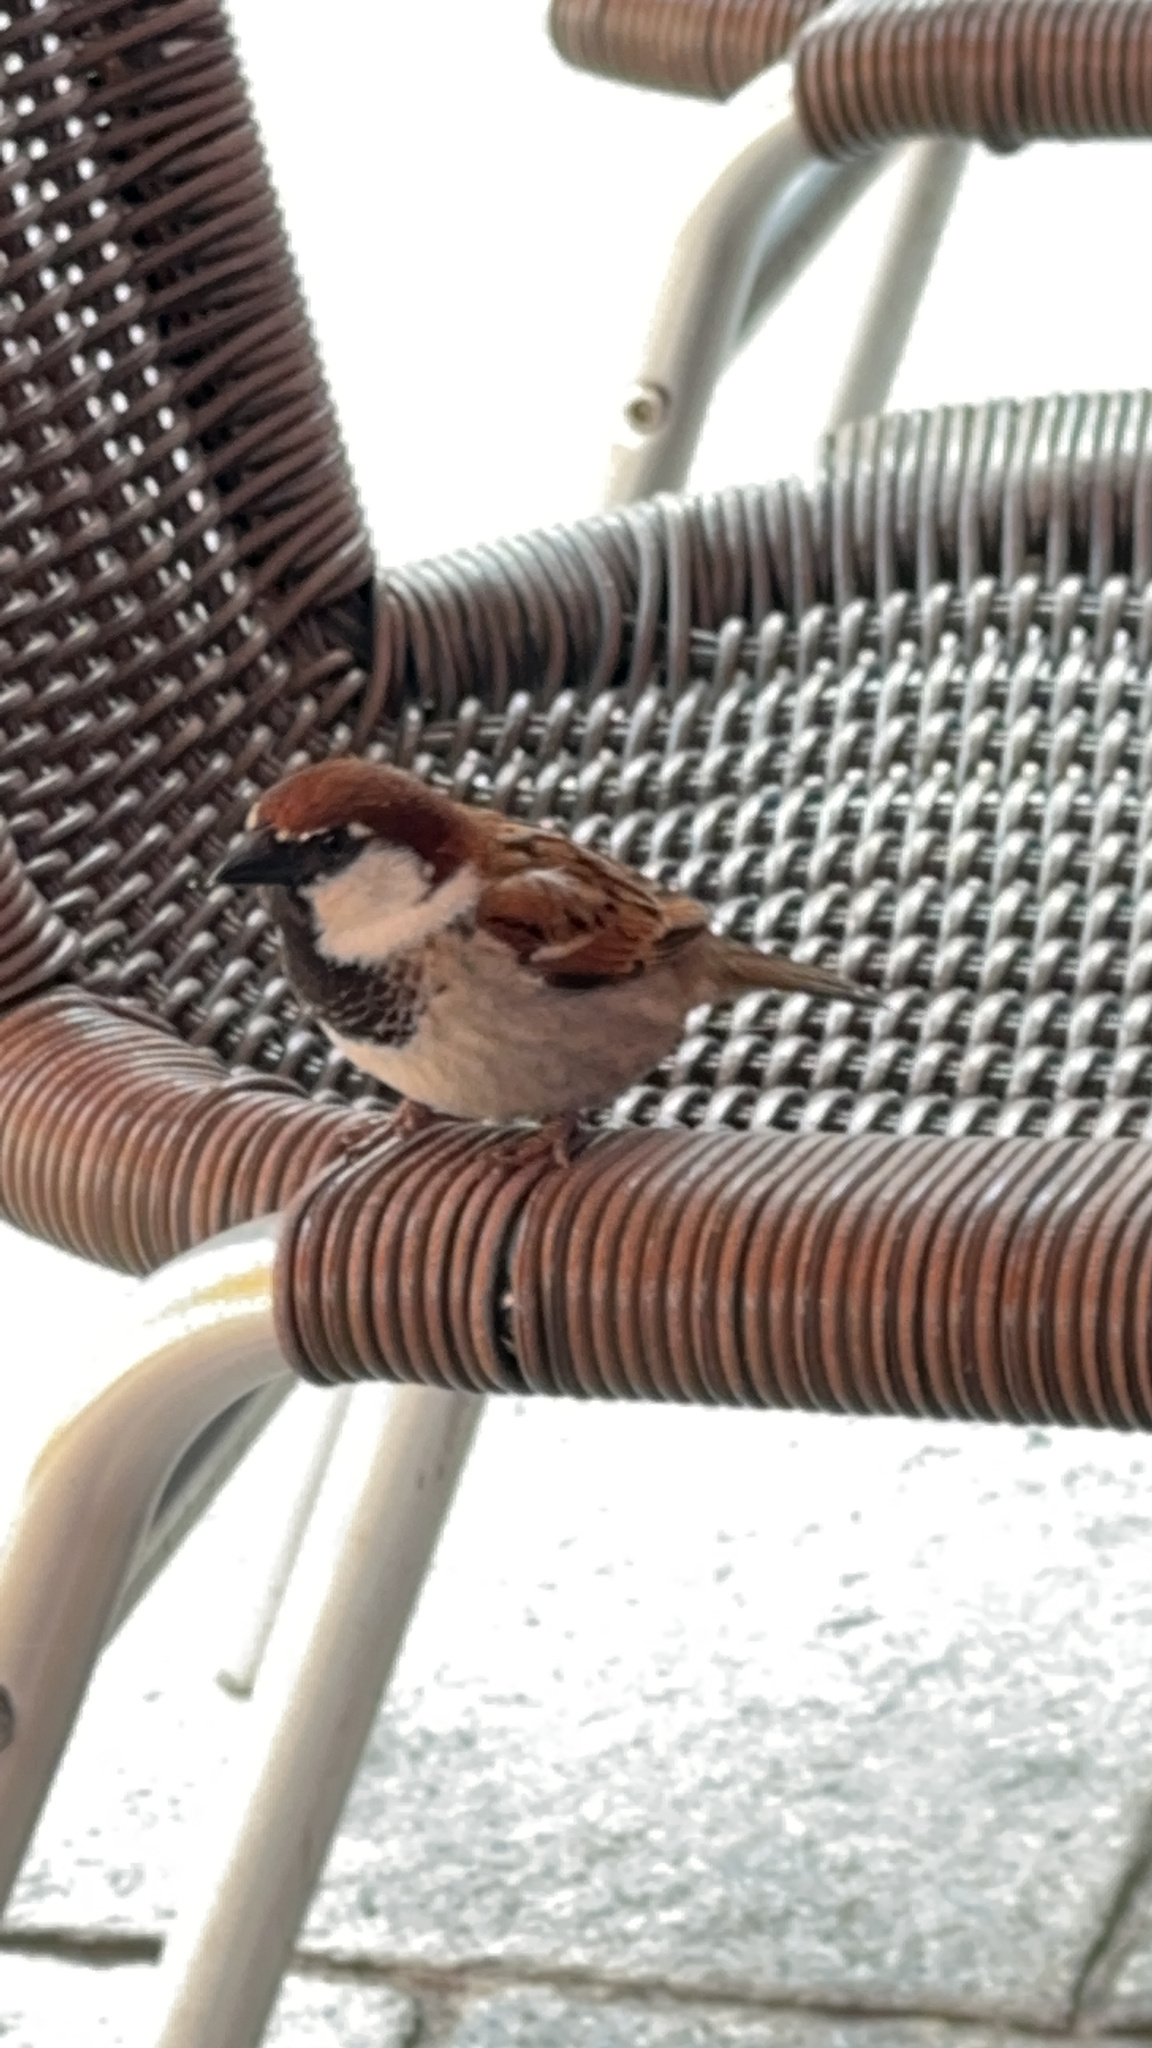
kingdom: Animalia
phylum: Chordata
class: Aves
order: Passeriformes
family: Passeridae
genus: Passer
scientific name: Passer italiae
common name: Italian sparrow
